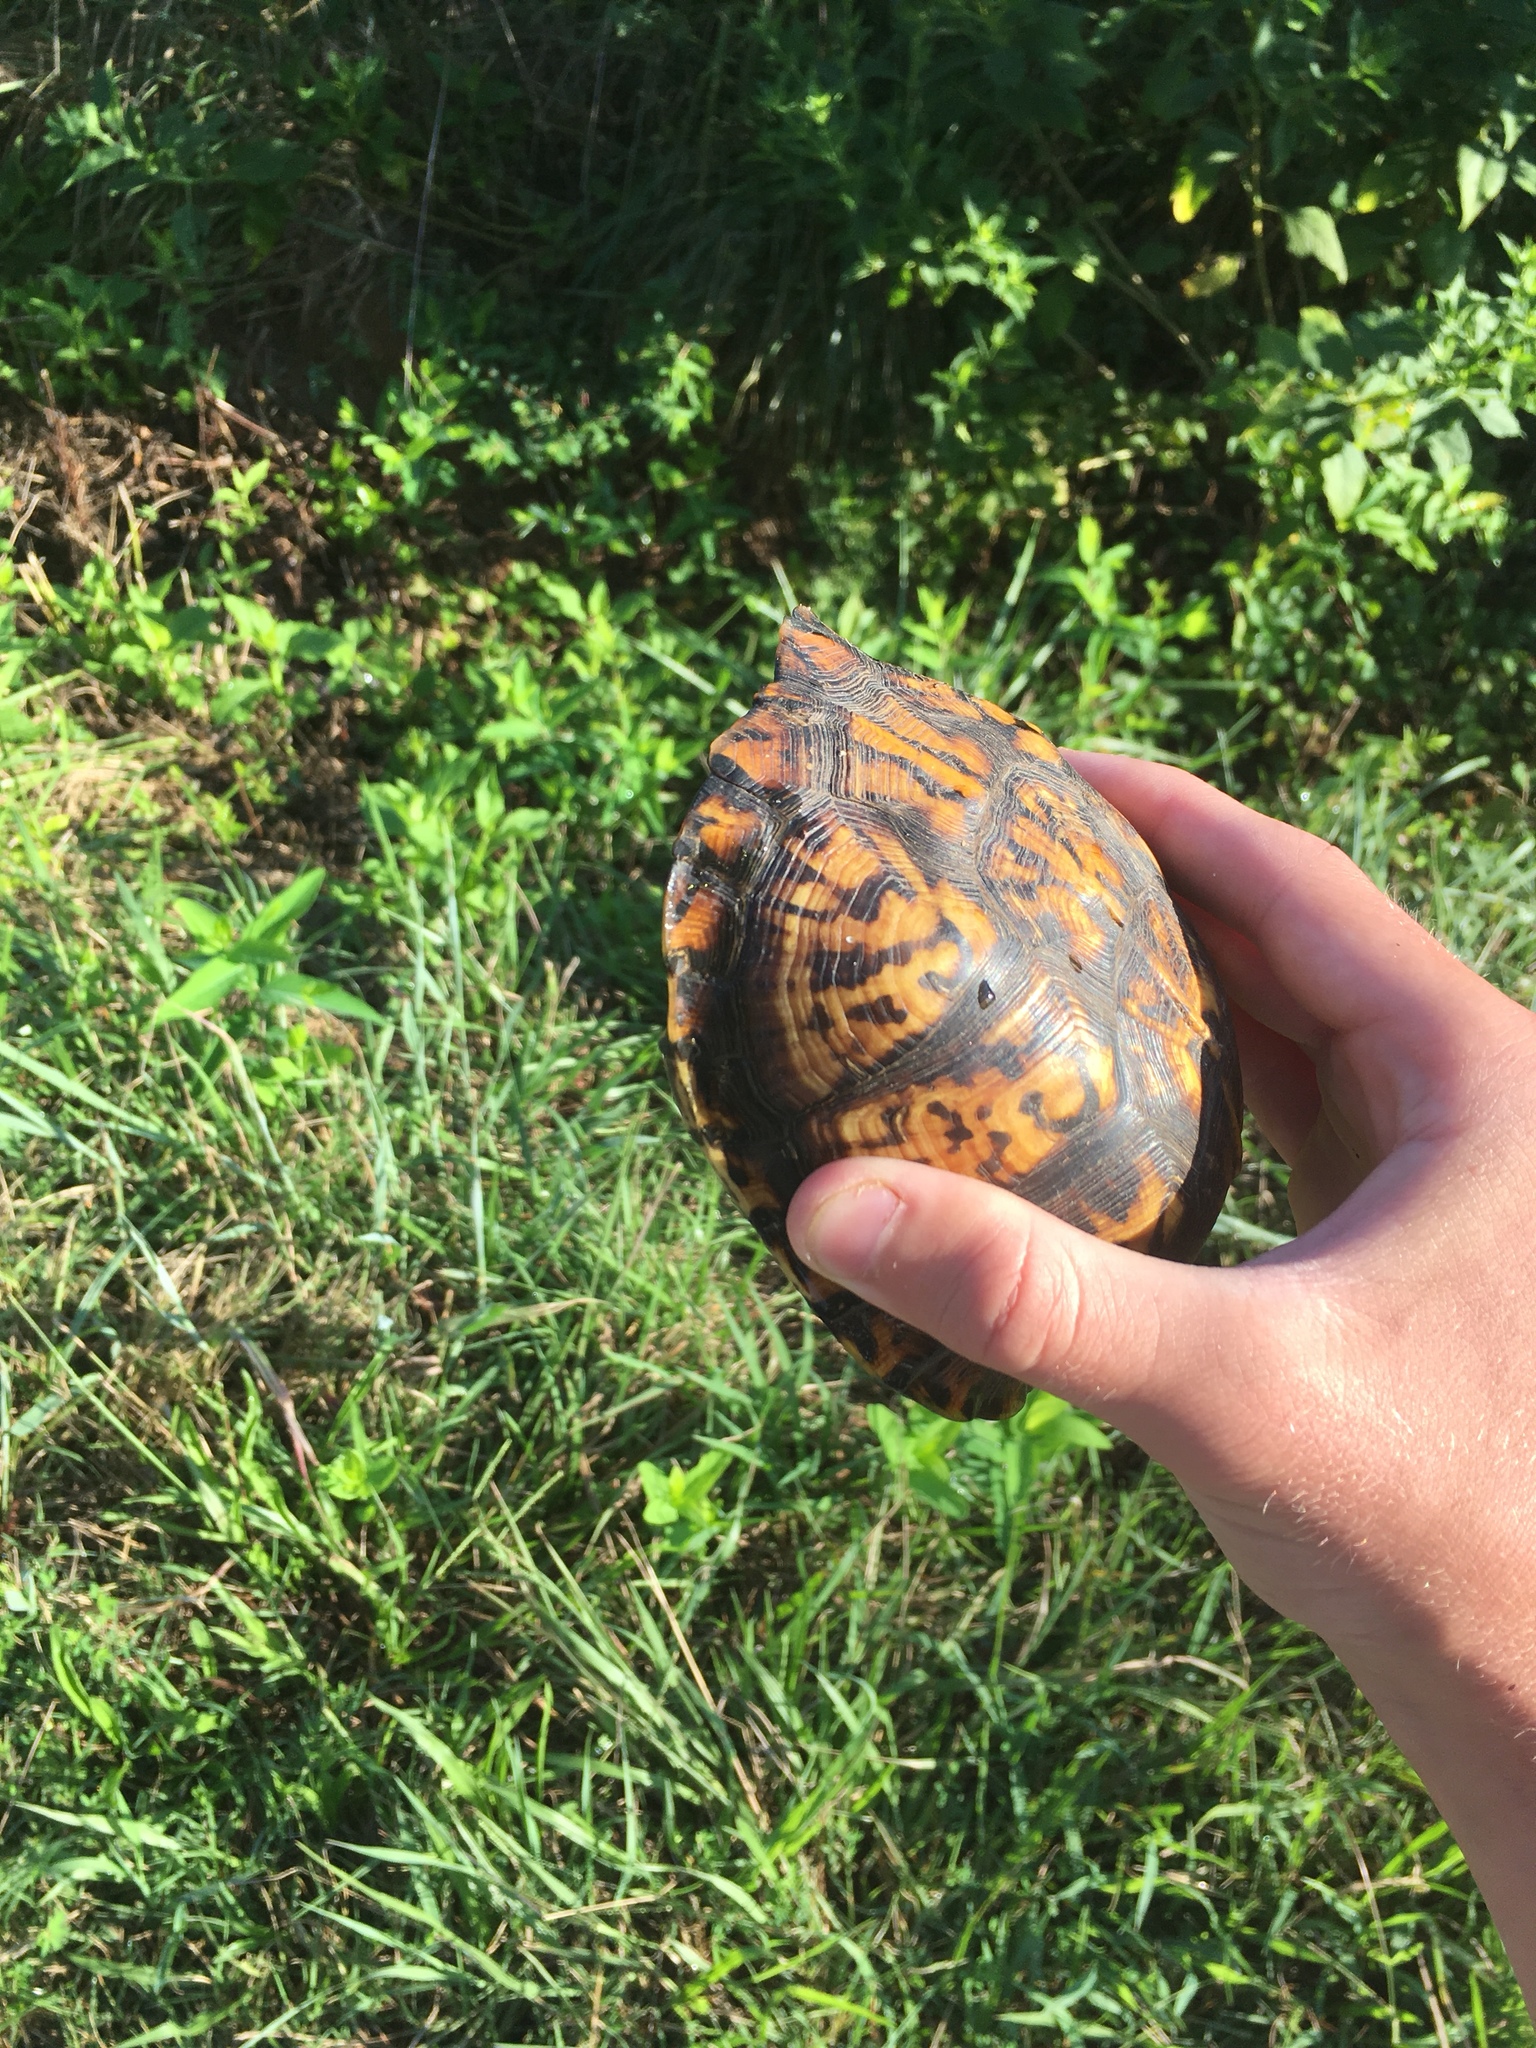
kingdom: Animalia
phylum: Chordata
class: Testudines
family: Emydidae
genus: Terrapene
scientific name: Terrapene carolina
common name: Common box turtle
